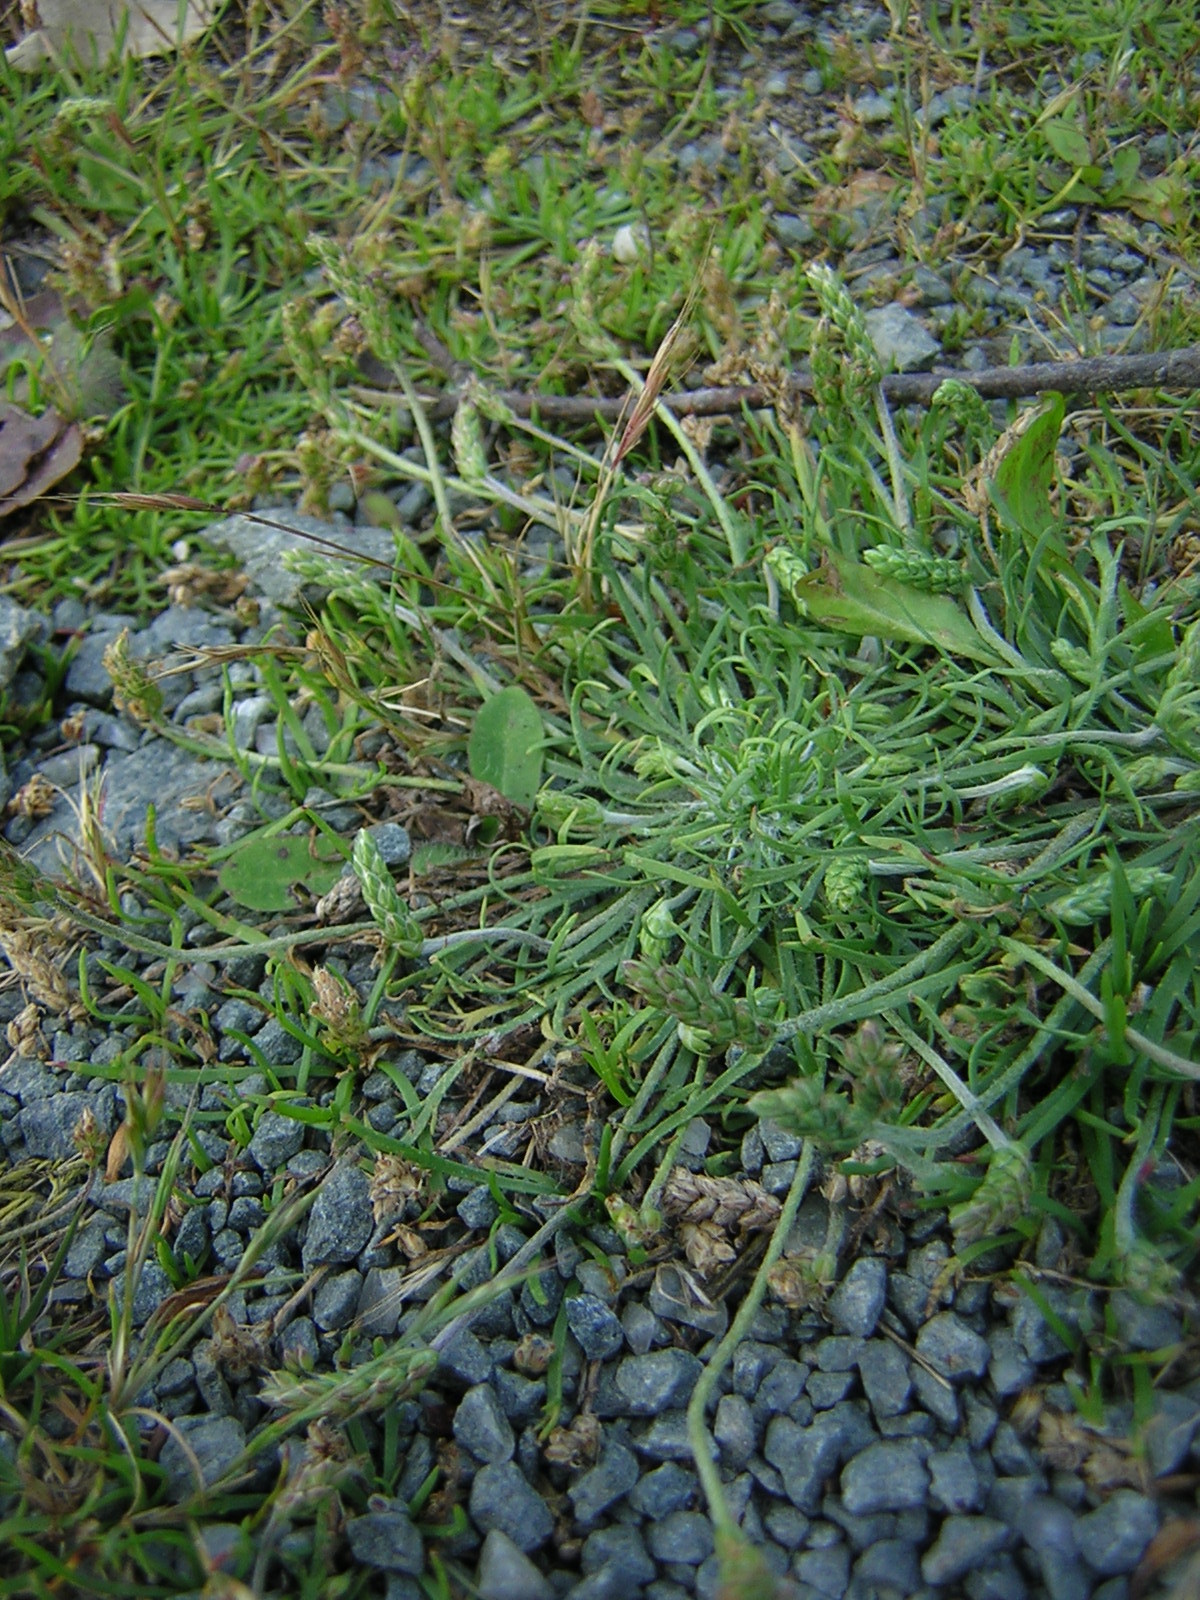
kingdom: Plantae
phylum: Tracheophyta
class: Magnoliopsida
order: Lamiales
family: Plantaginaceae
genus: Plantago
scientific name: Plantago coronopus
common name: Buck's-horn plantain
